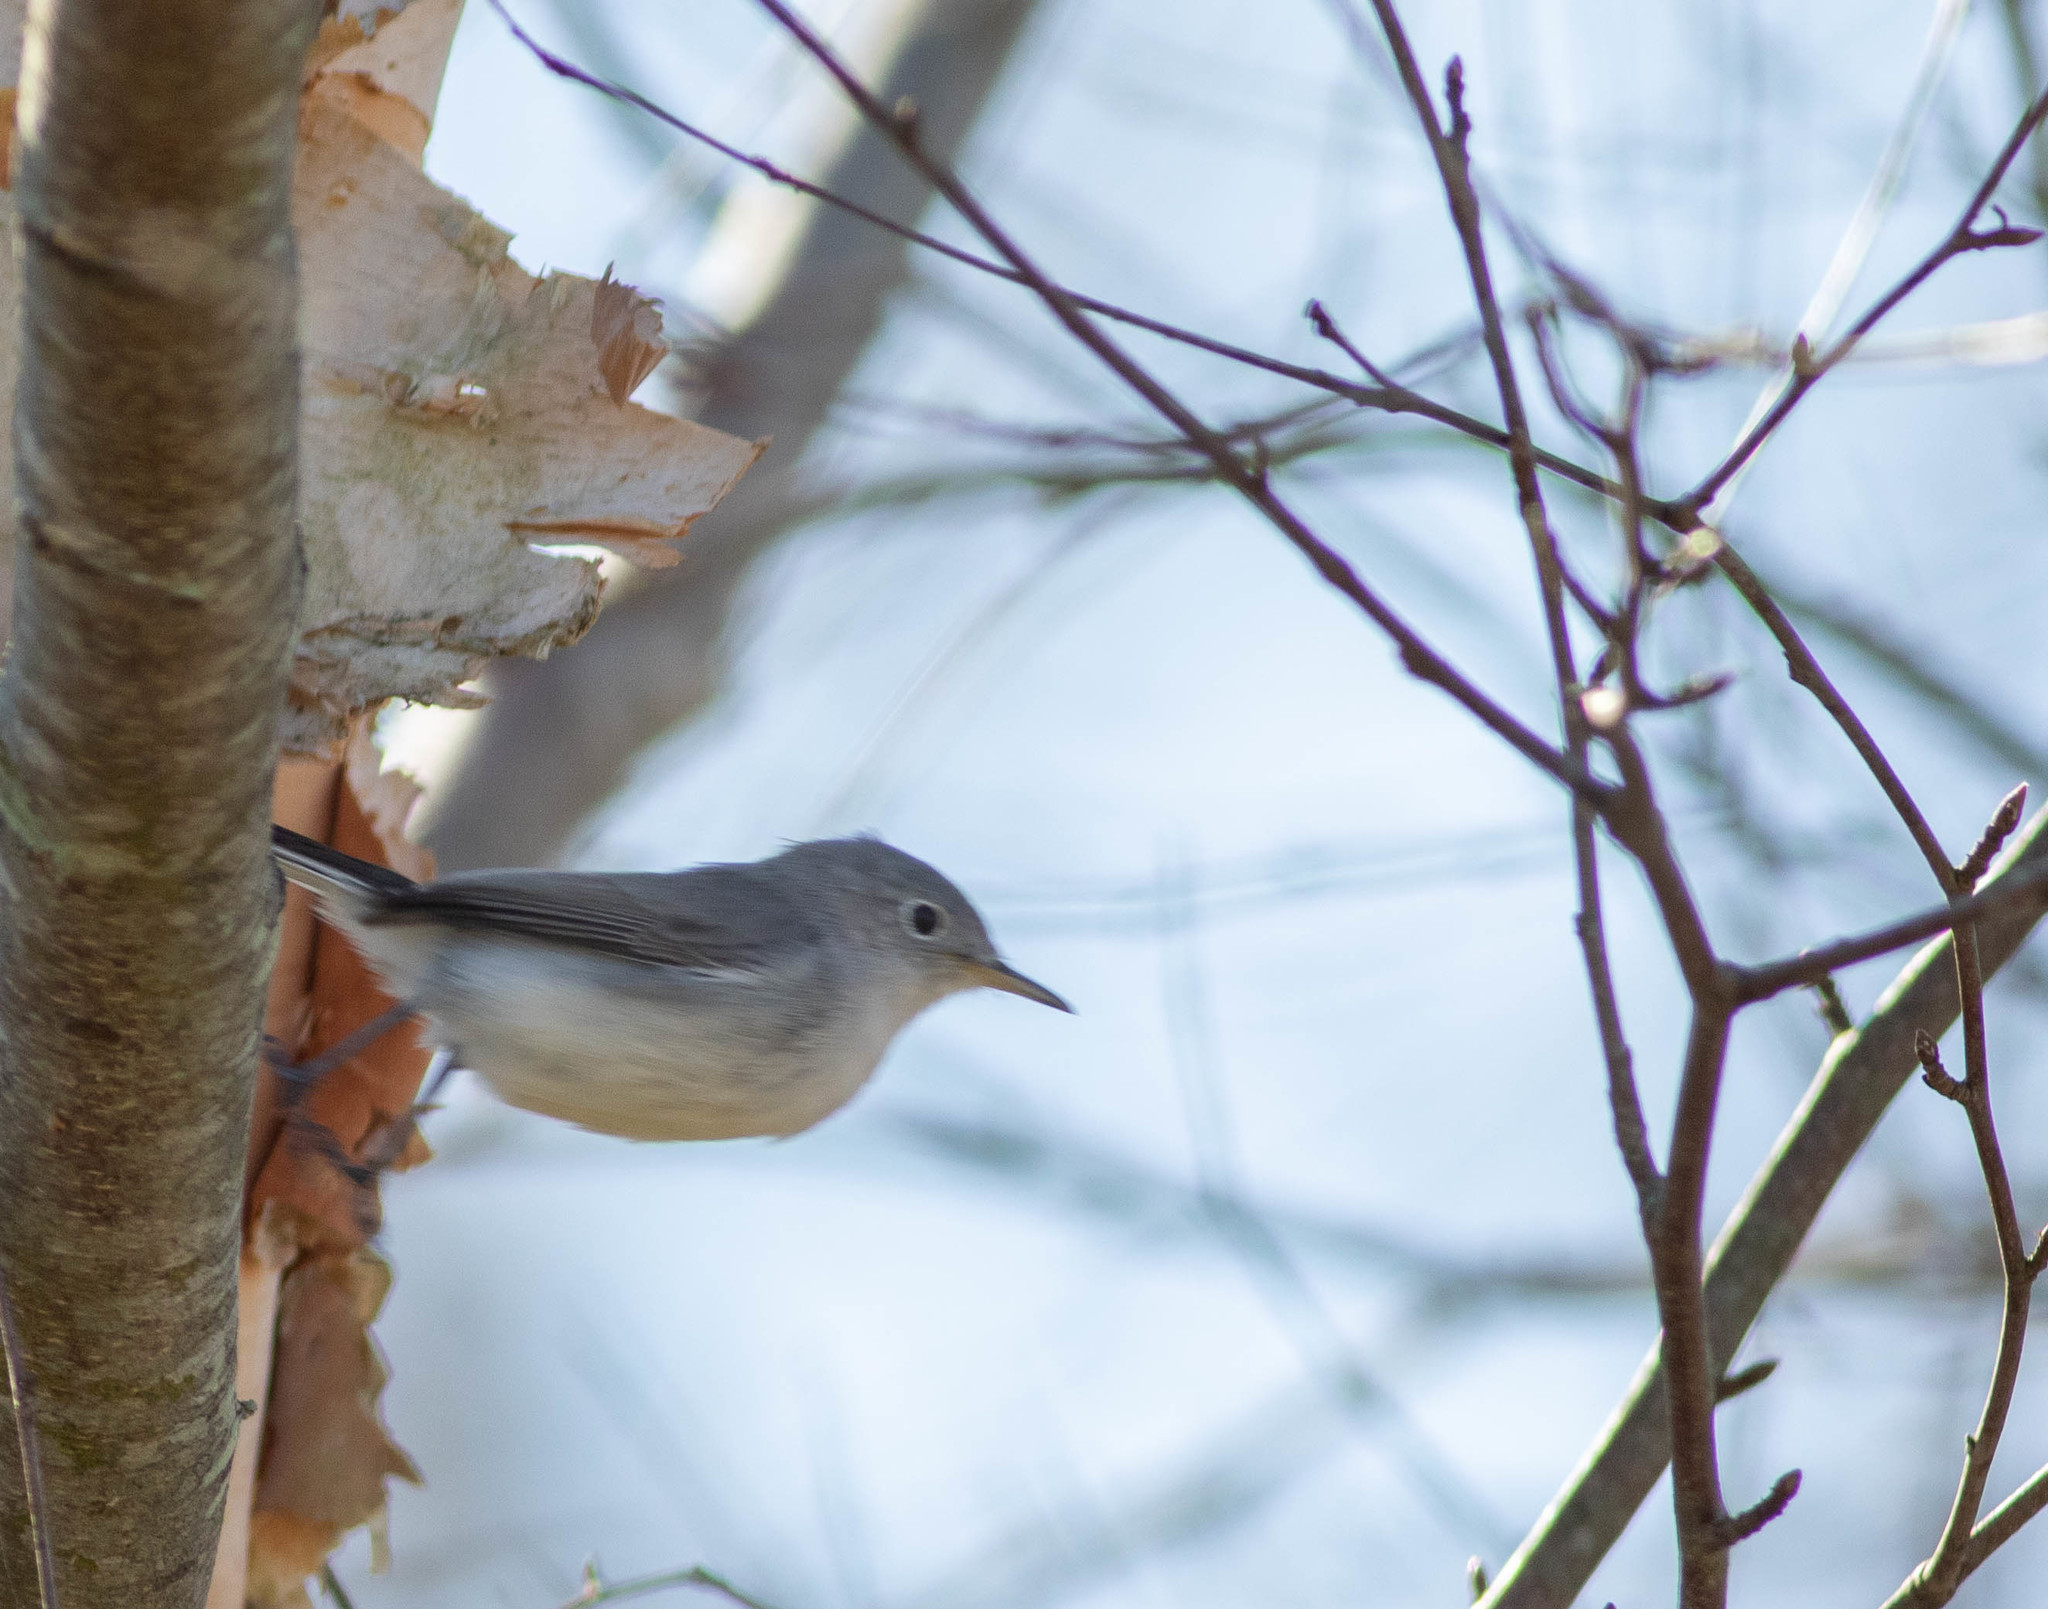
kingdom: Animalia
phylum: Chordata
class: Aves
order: Passeriformes
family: Polioptilidae
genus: Polioptila
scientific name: Polioptila caerulea
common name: Blue-gray gnatcatcher
